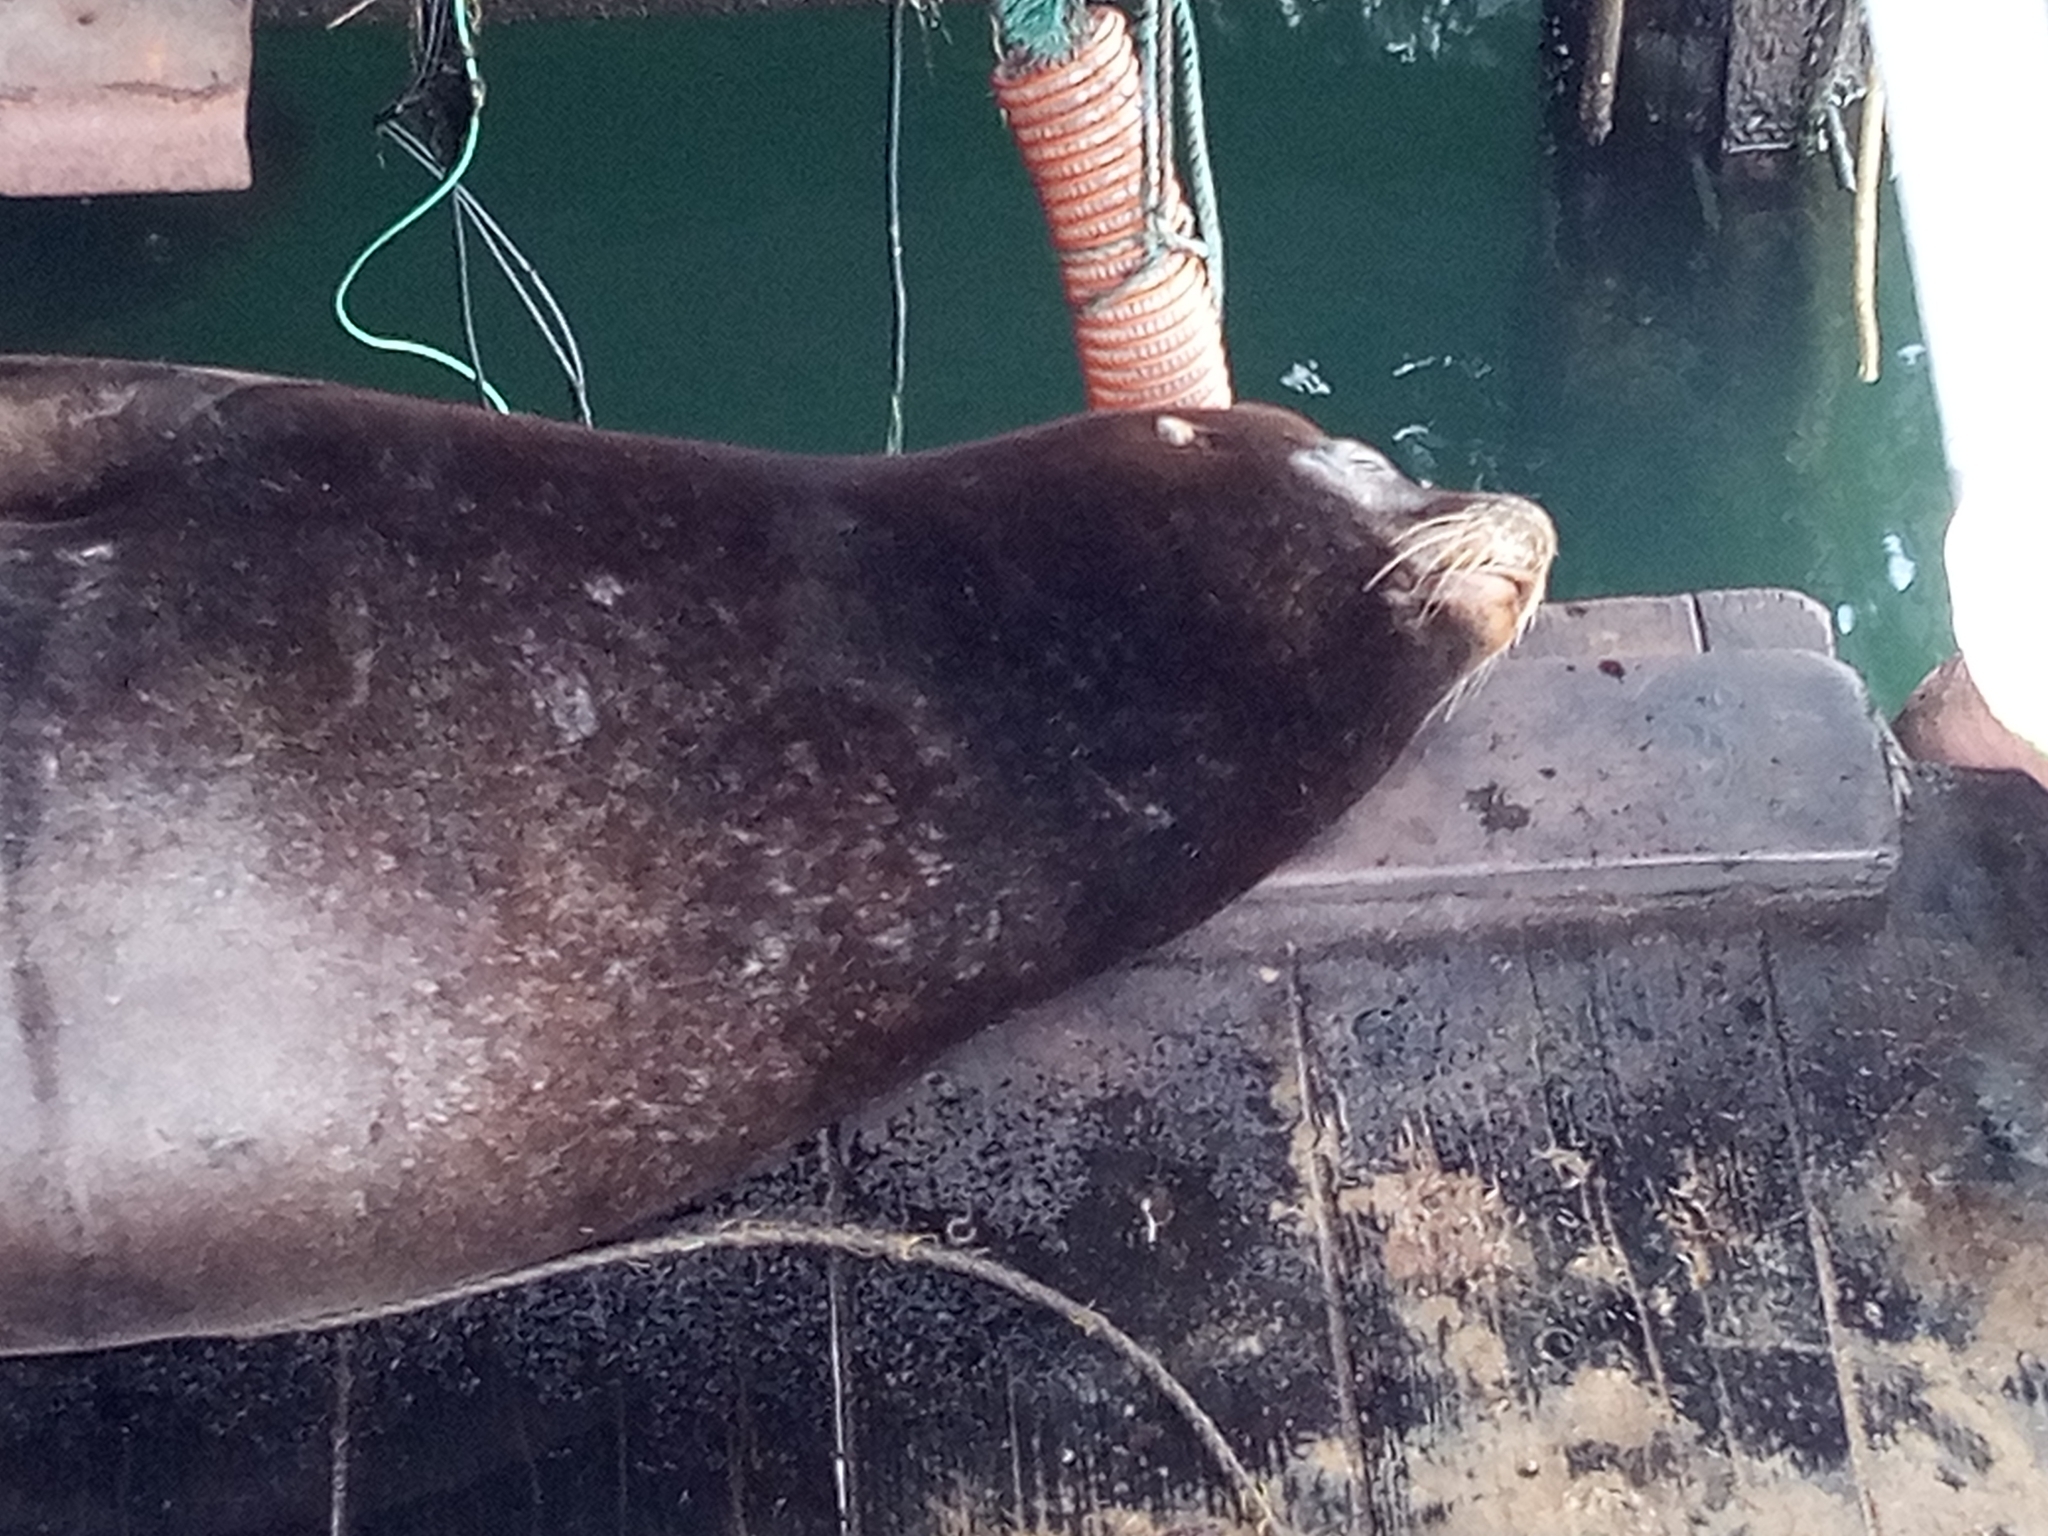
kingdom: Animalia
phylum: Chordata
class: Mammalia
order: Carnivora
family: Otariidae
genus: Zalophus
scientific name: Zalophus californianus
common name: California sea lion
